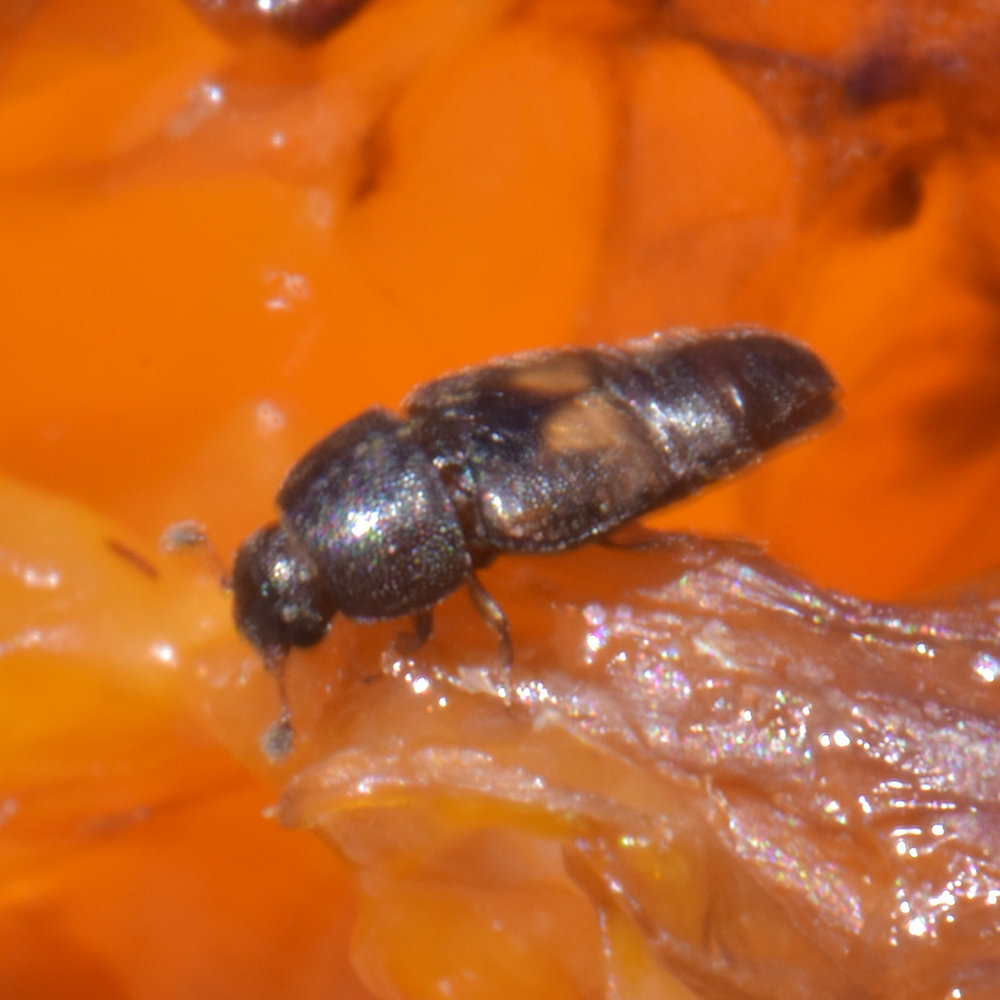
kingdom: Animalia
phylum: Arthropoda
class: Insecta
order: Coleoptera
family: Nitidulidae
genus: Carpophilus
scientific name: Carpophilus hemipterus
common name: Dried fruit beetle
